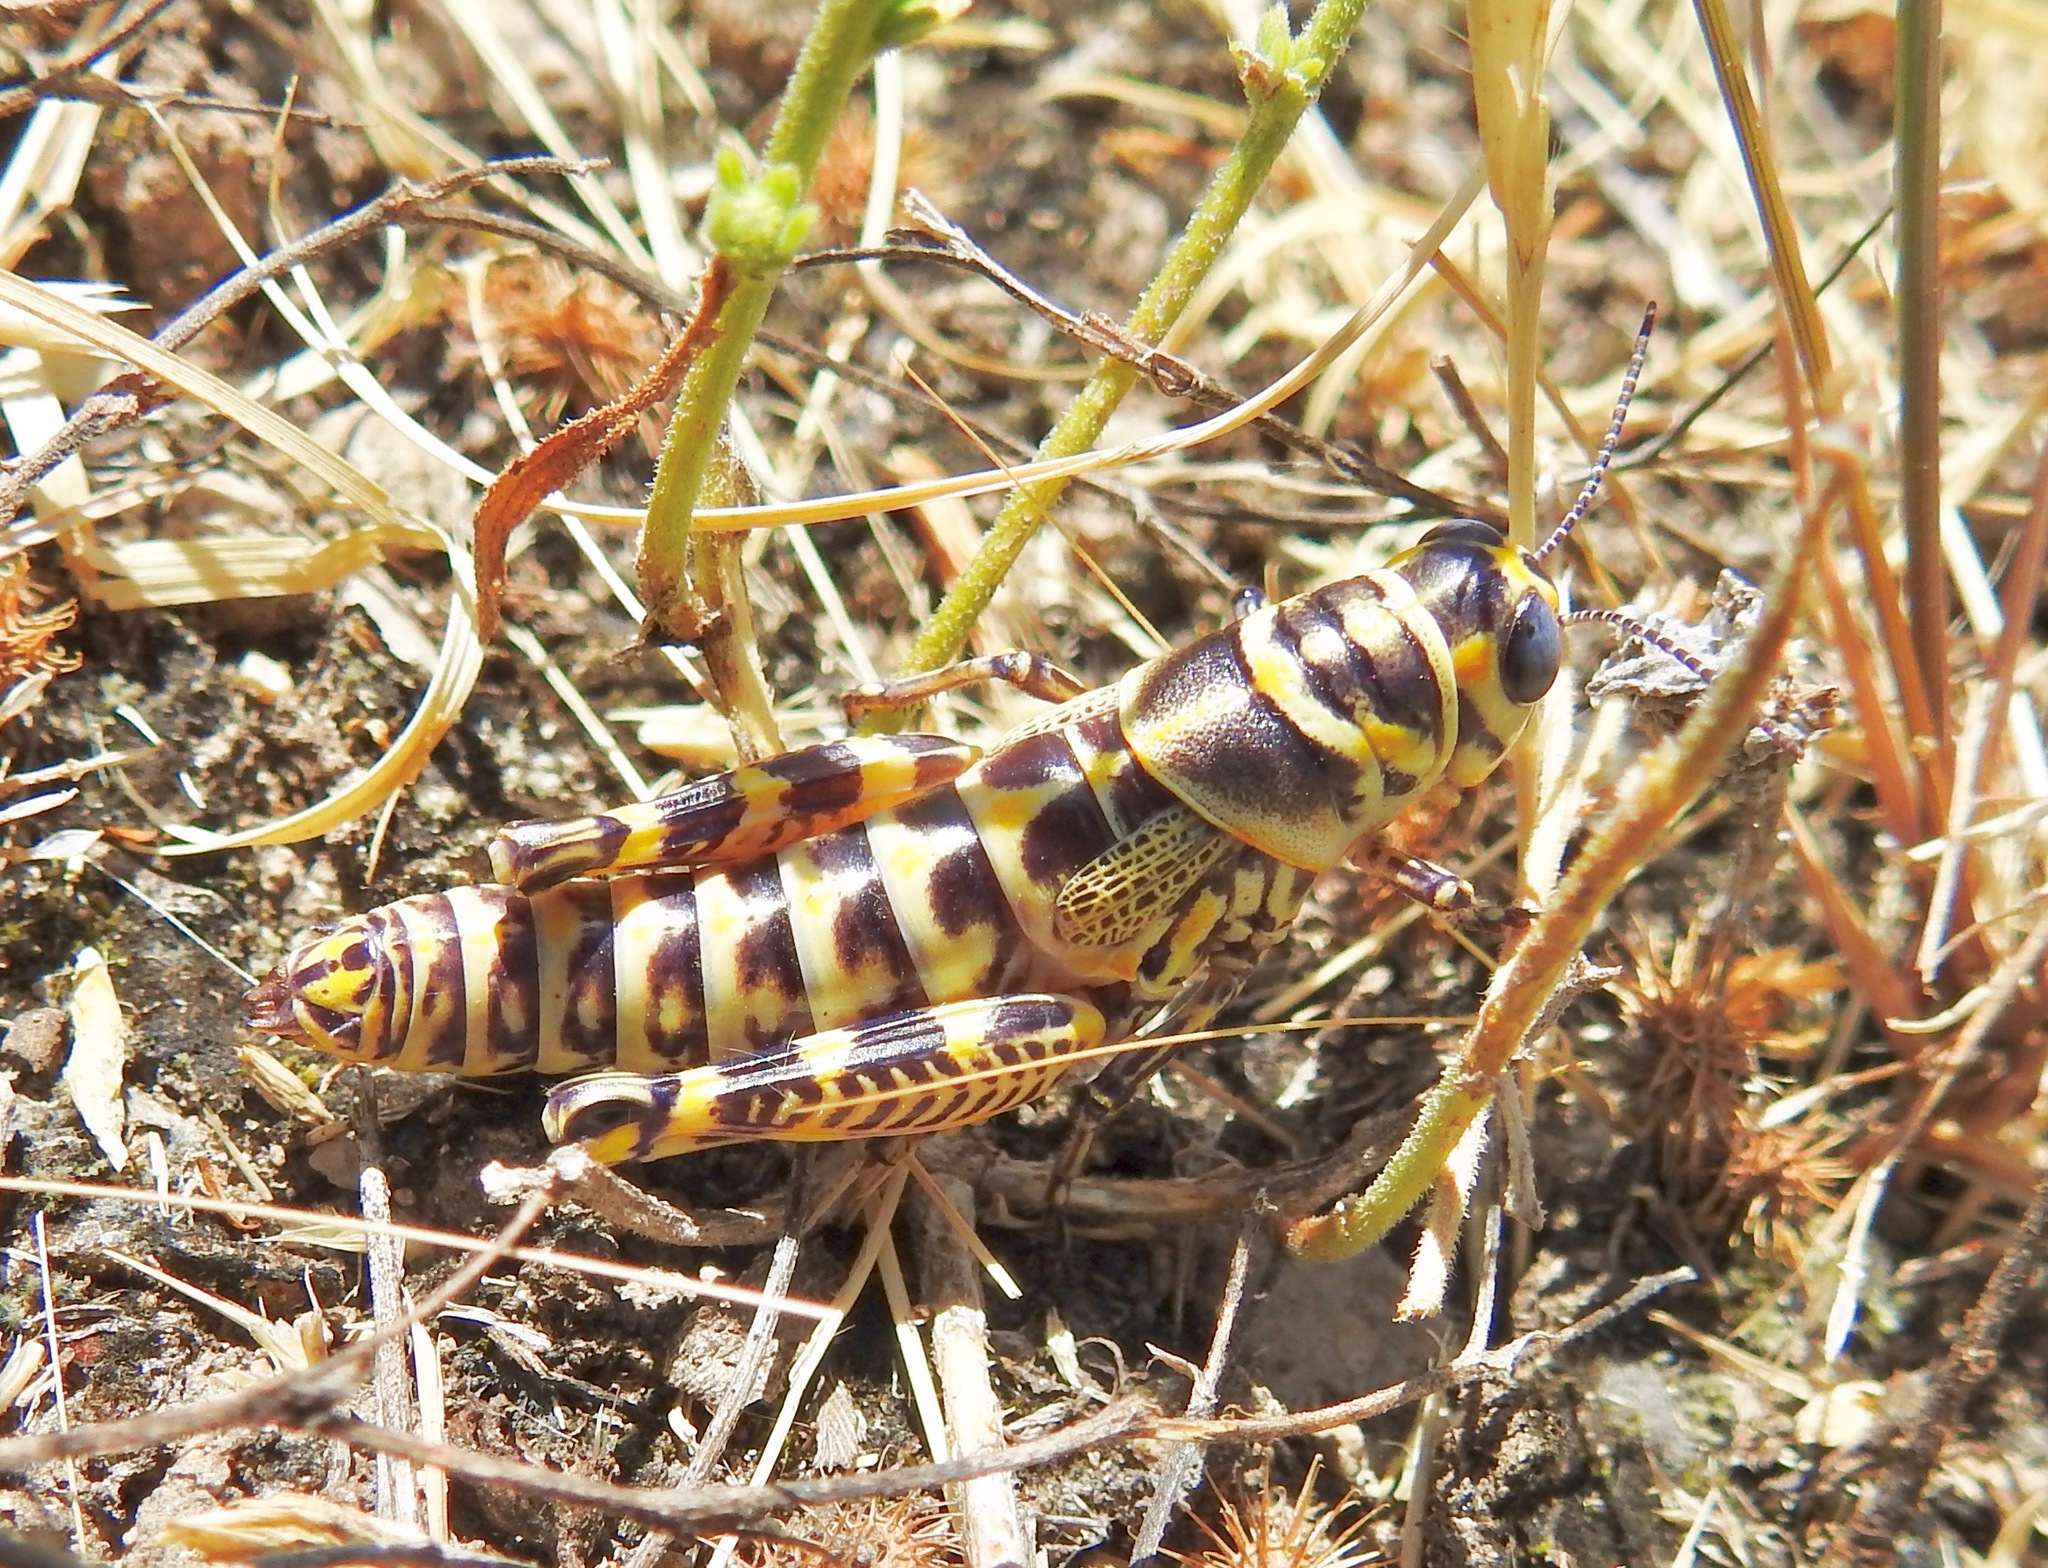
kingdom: Animalia
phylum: Arthropoda
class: Insecta
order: Orthoptera
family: Acrididae
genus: Dactylotum
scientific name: Dactylotum bicolor
